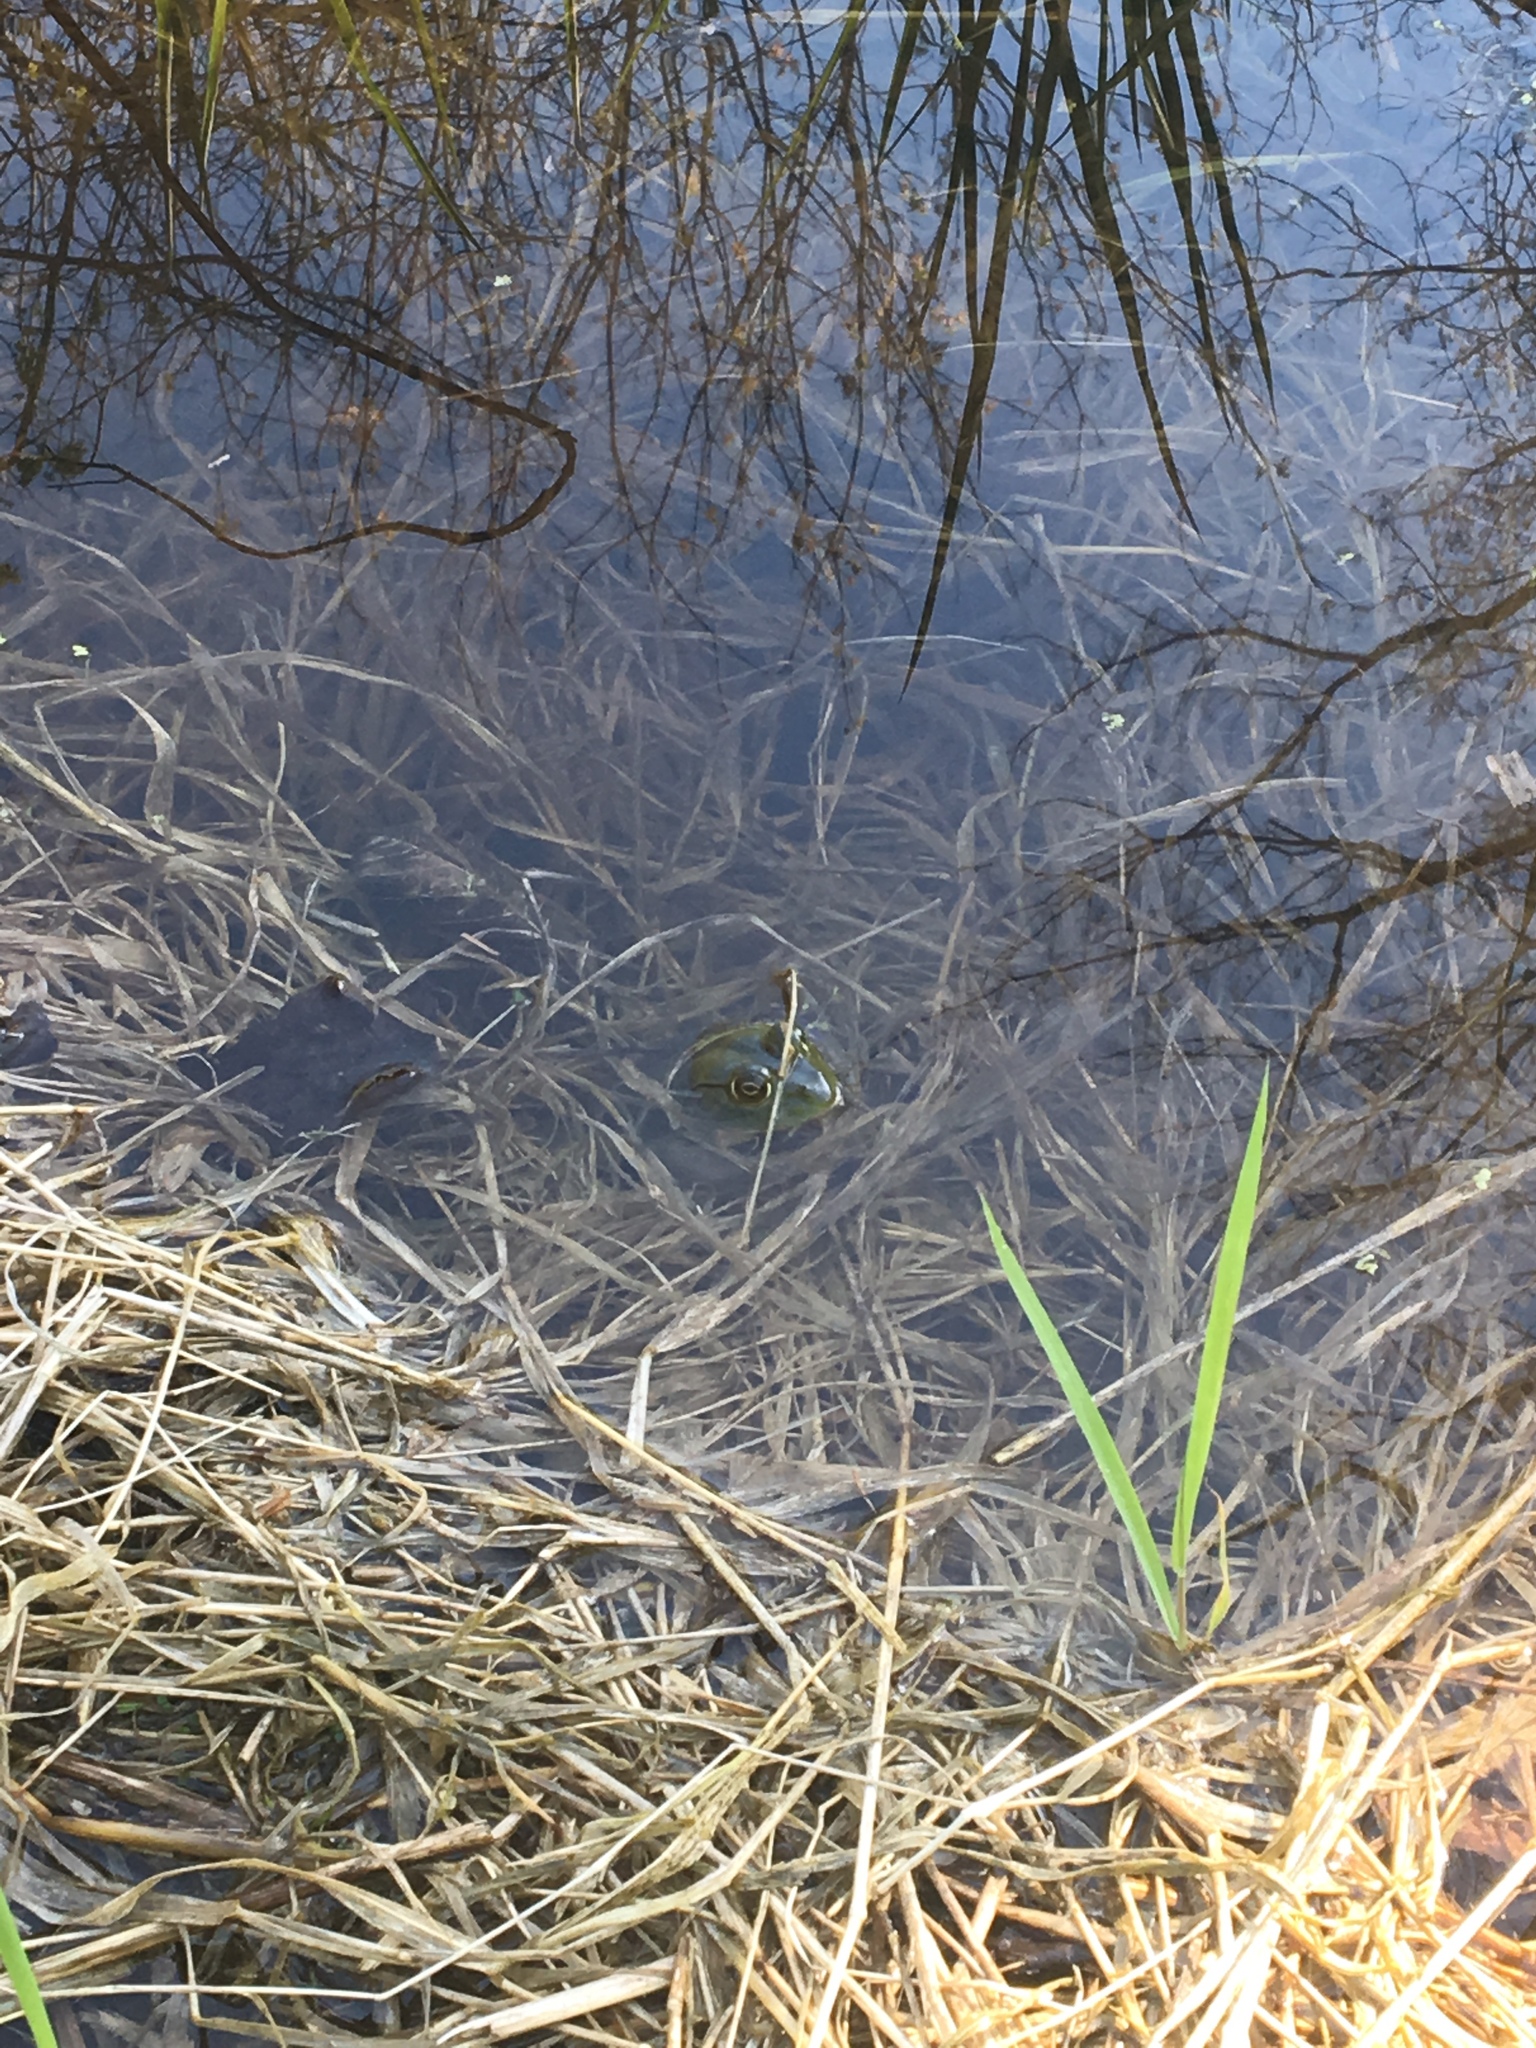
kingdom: Animalia
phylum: Chordata
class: Amphibia
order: Anura
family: Ranidae
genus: Lithobates
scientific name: Lithobates catesbeianus
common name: American bullfrog
